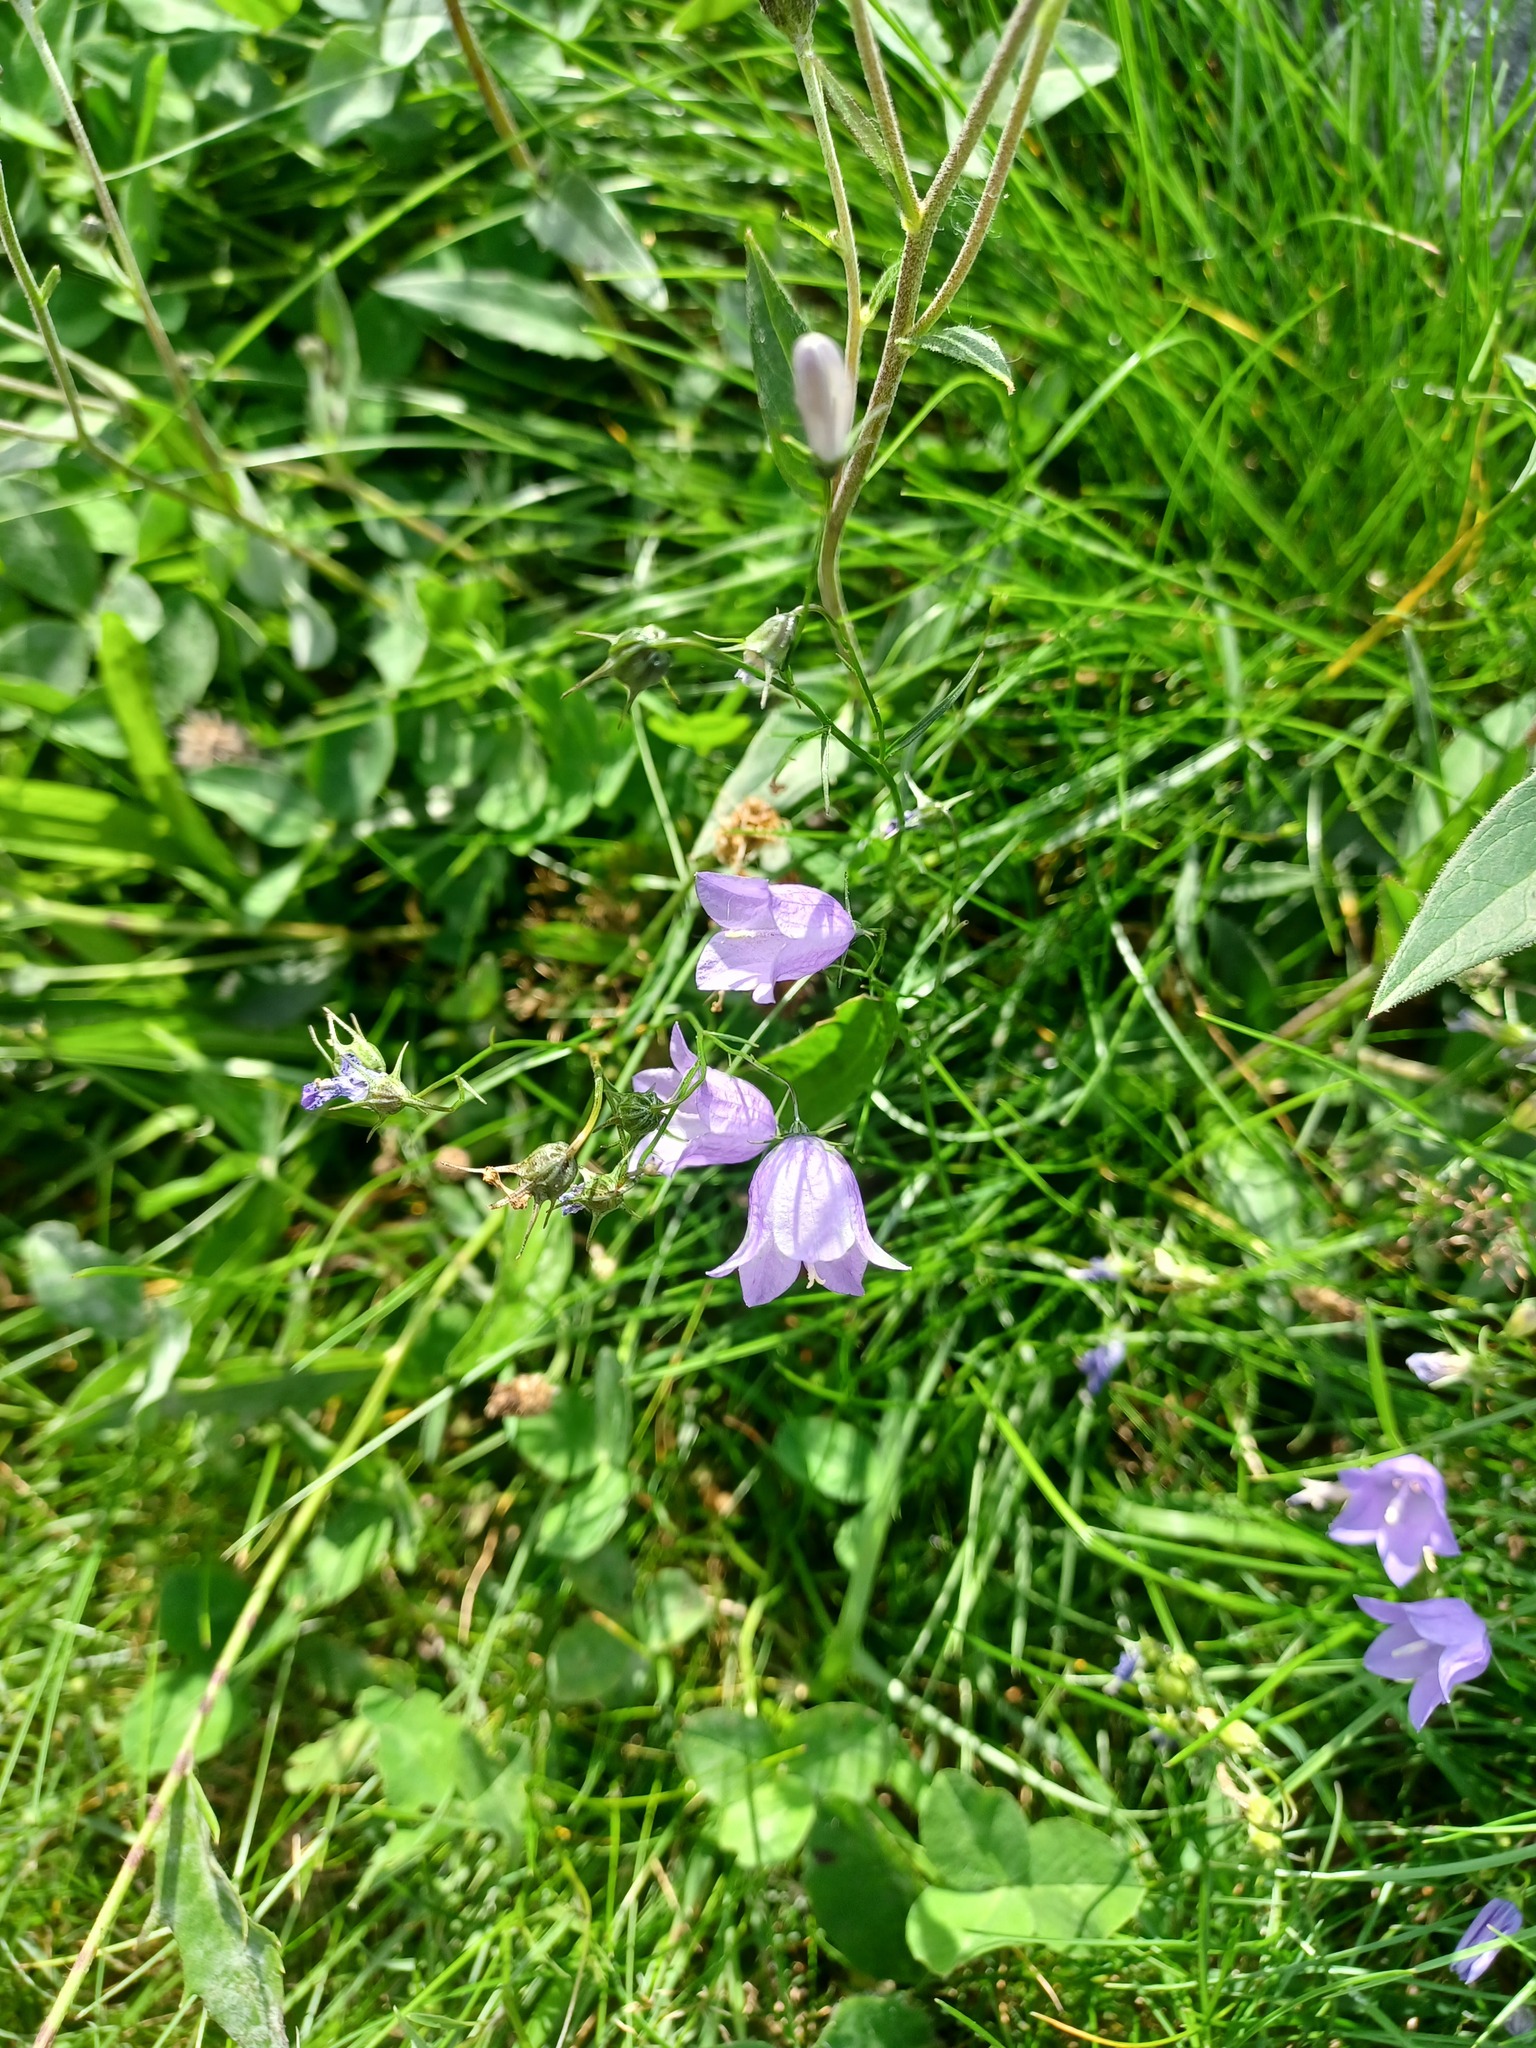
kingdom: Plantae
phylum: Tracheophyta
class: Magnoliopsida
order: Asterales
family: Campanulaceae
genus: Campanula
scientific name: Campanula rotundifolia
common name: Harebell
